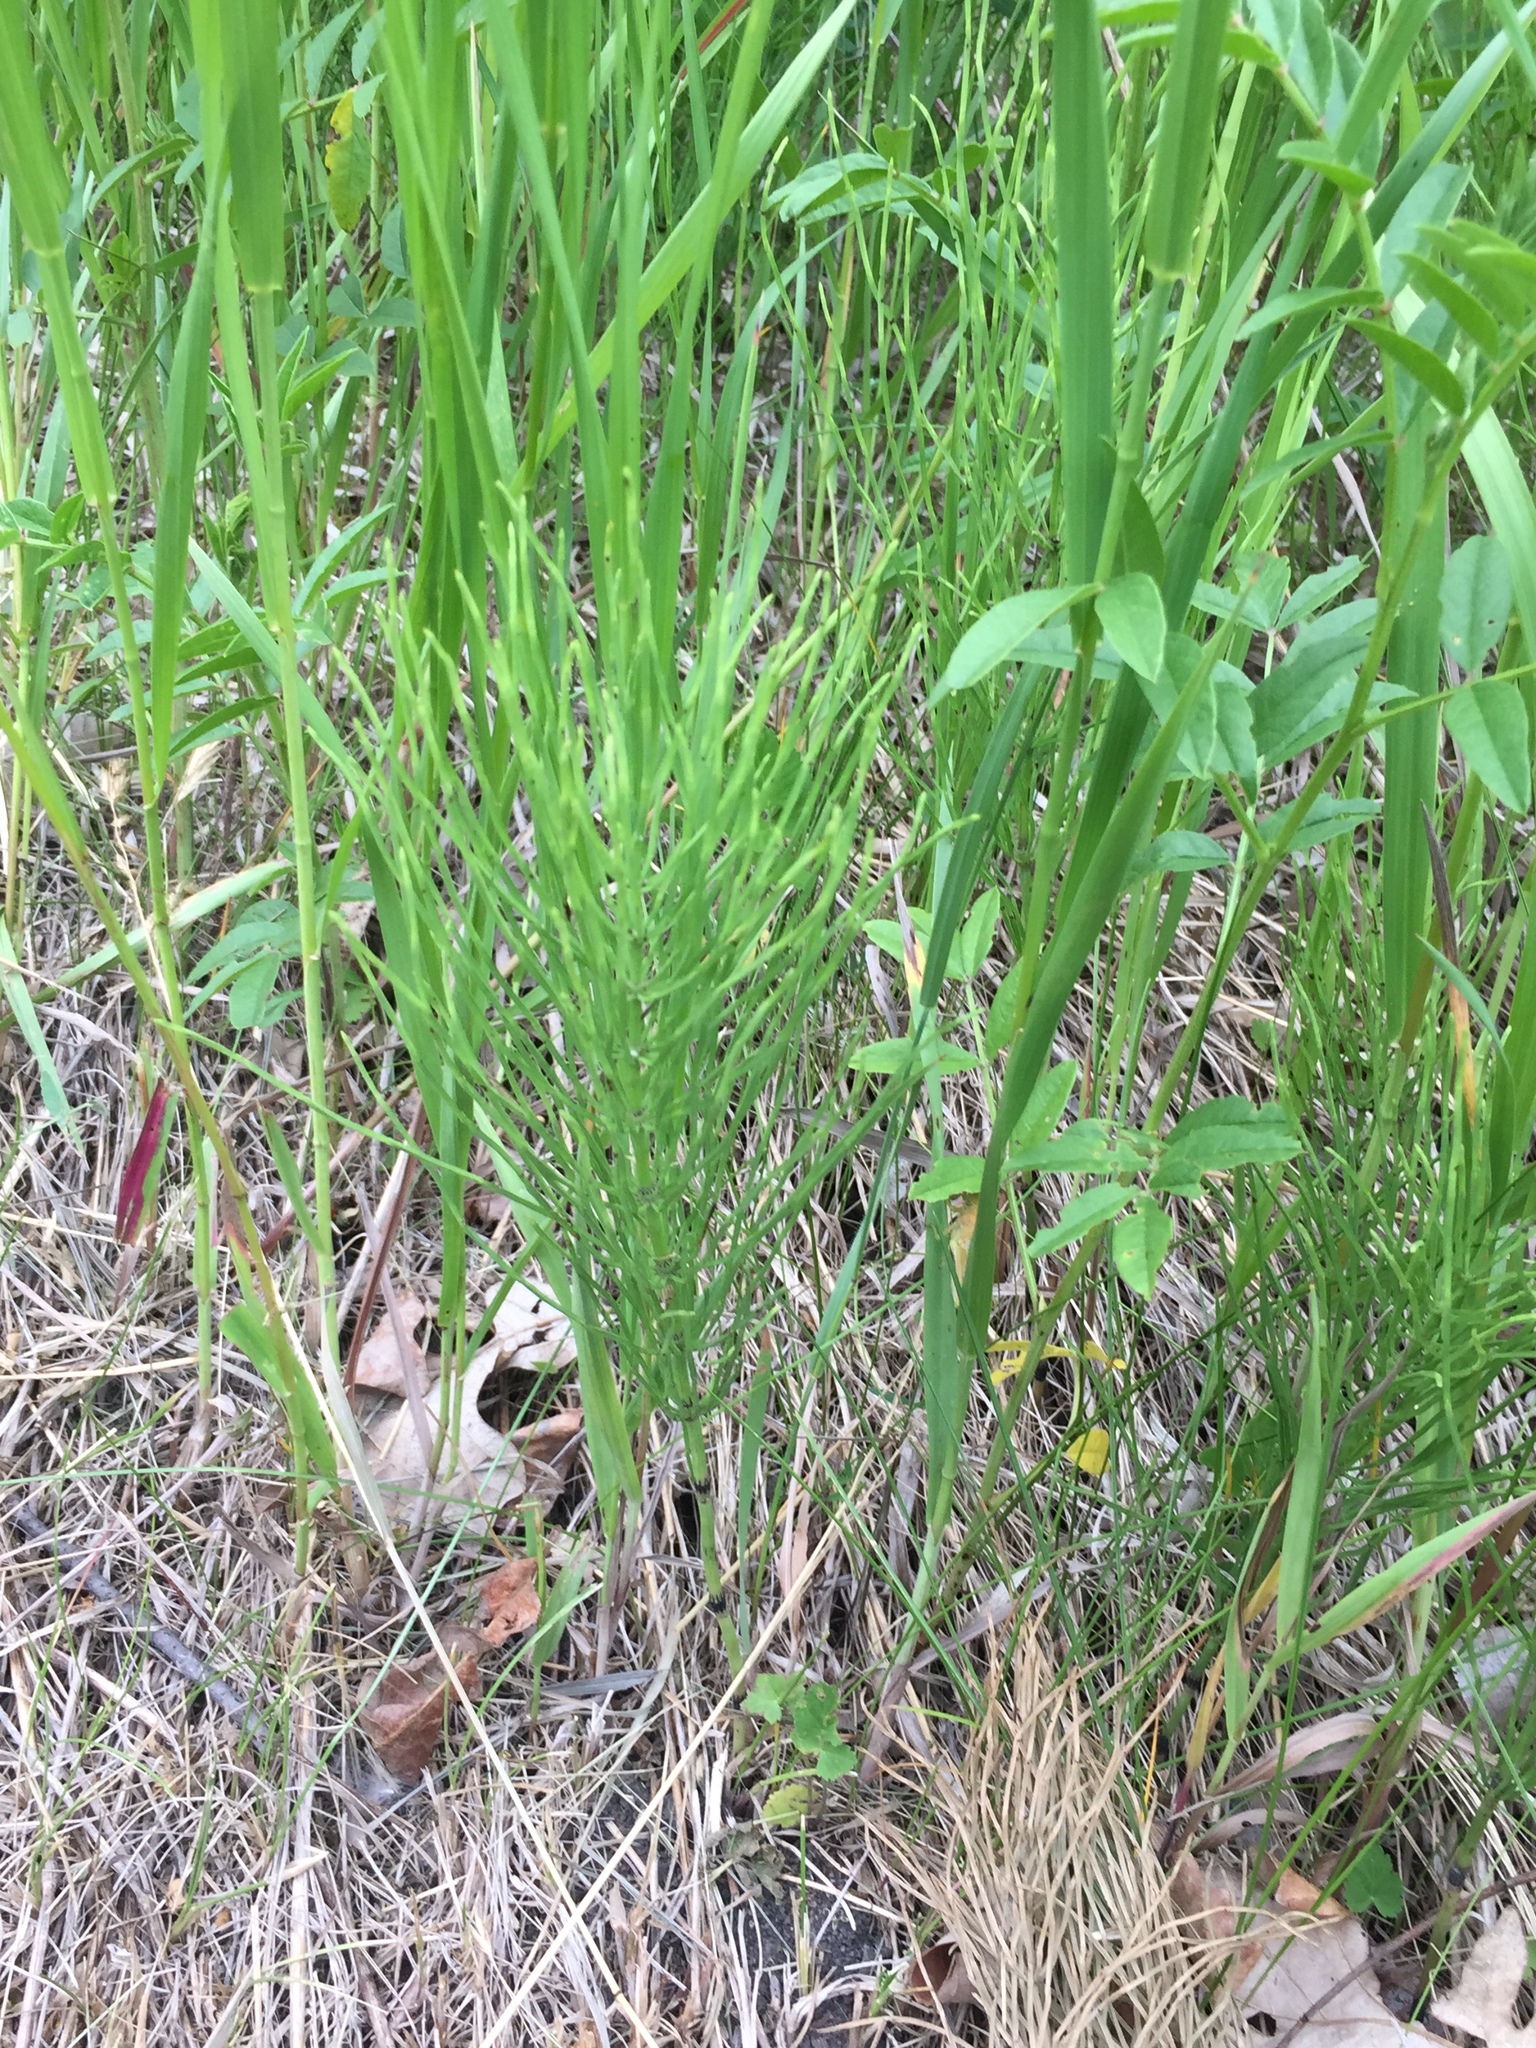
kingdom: Plantae
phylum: Tracheophyta
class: Polypodiopsida
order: Equisetales
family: Equisetaceae
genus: Equisetum
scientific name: Equisetum arvense
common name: Field horsetail
